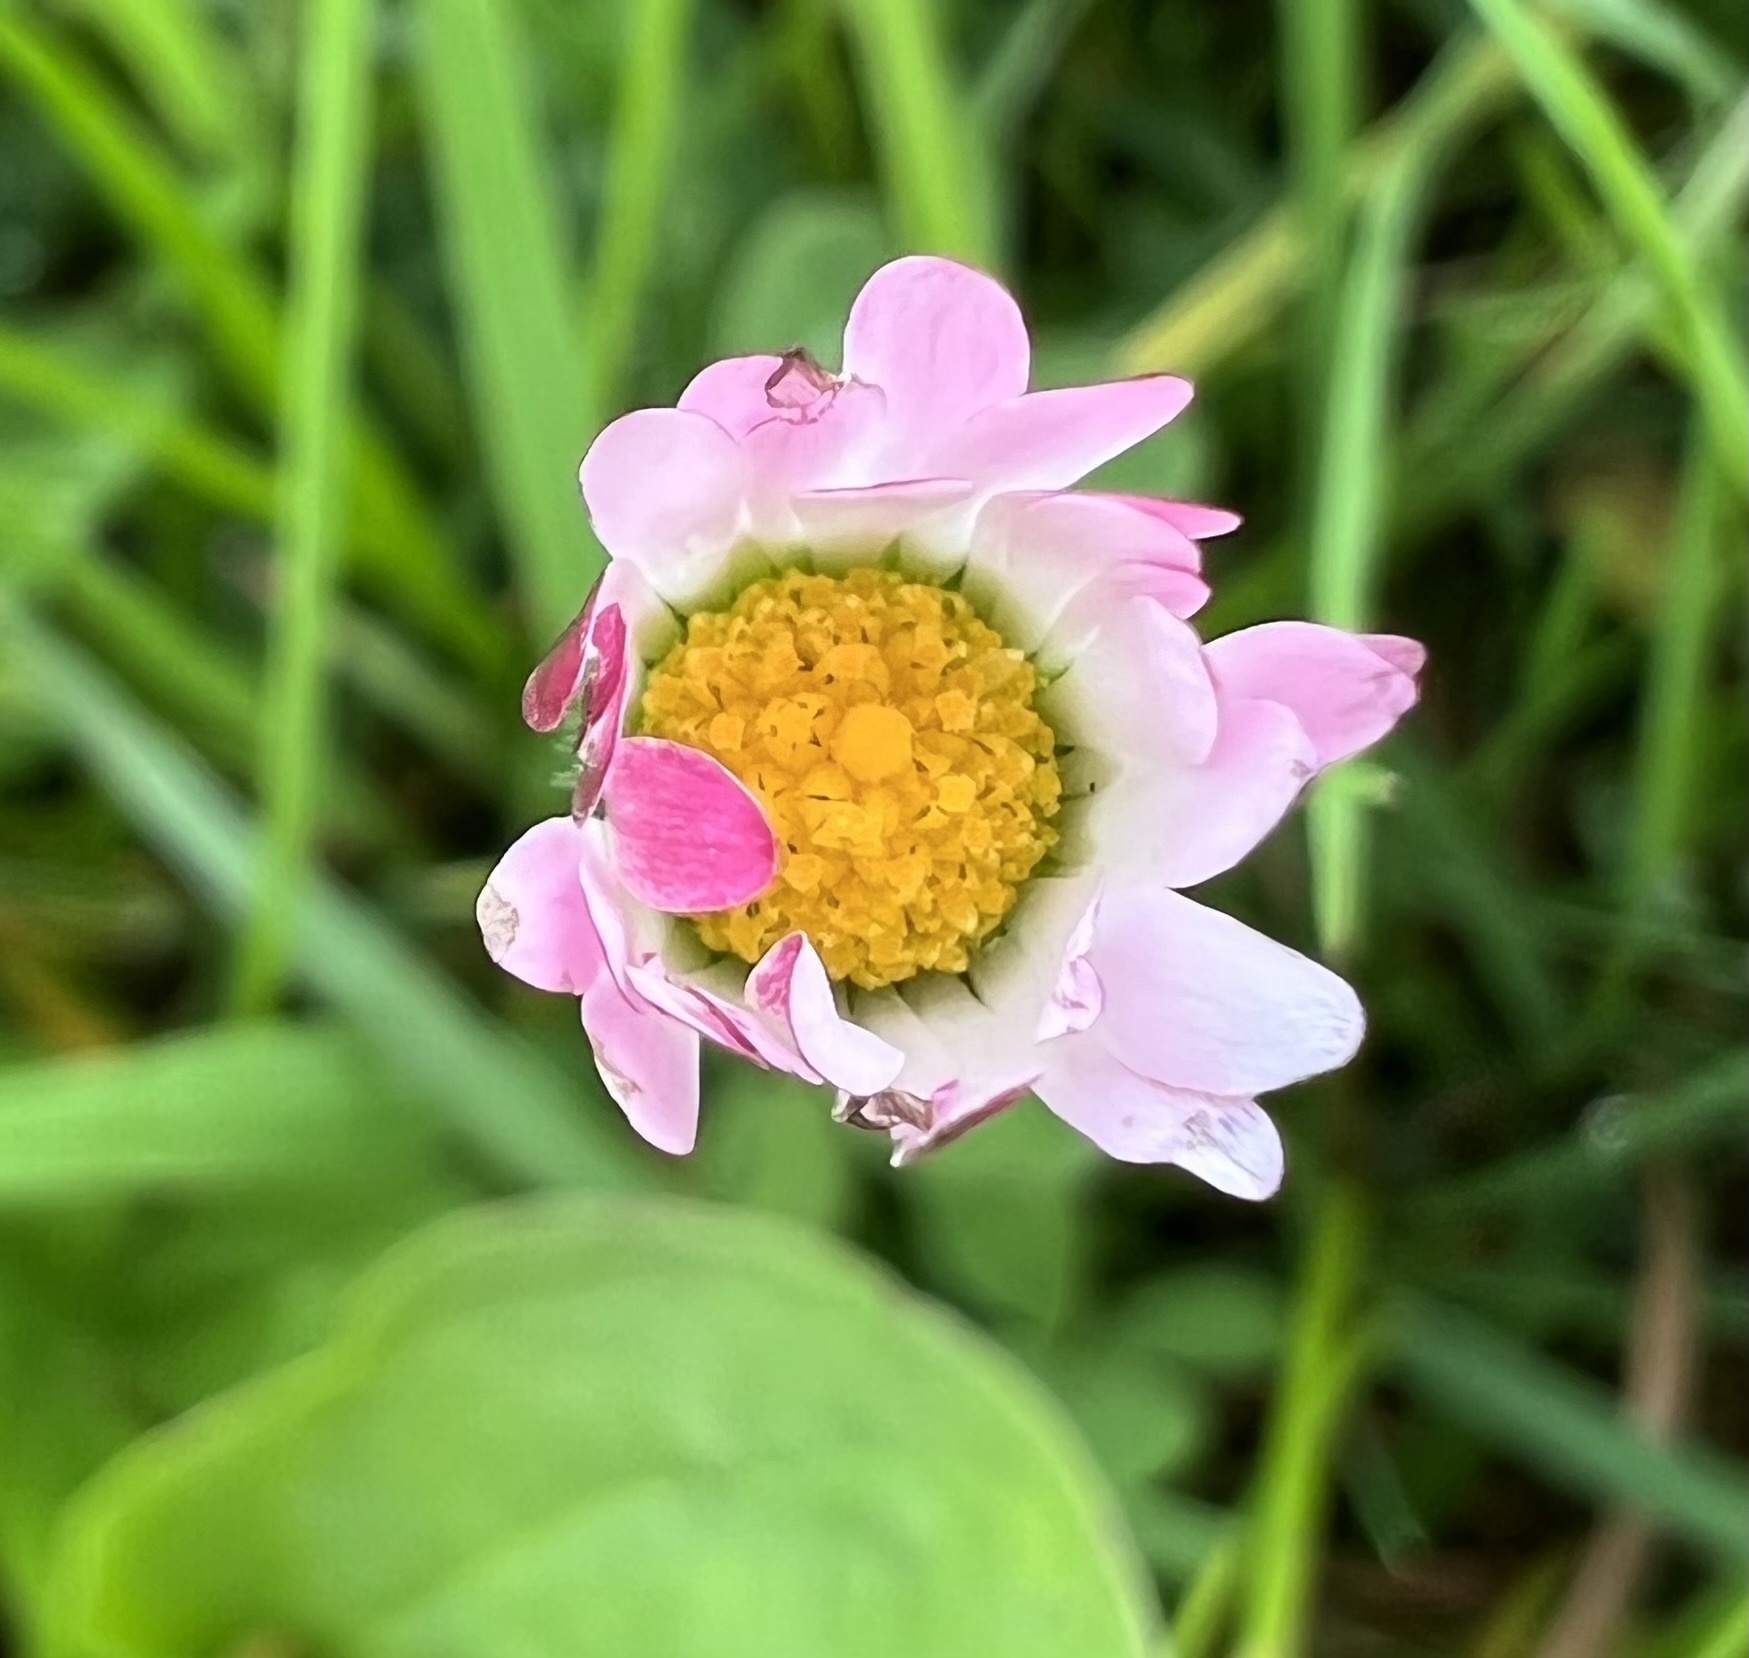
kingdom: Plantae
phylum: Tracheophyta
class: Magnoliopsida
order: Asterales
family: Asteraceae
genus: Bellis
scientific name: Bellis perennis
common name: Lawndaisy
